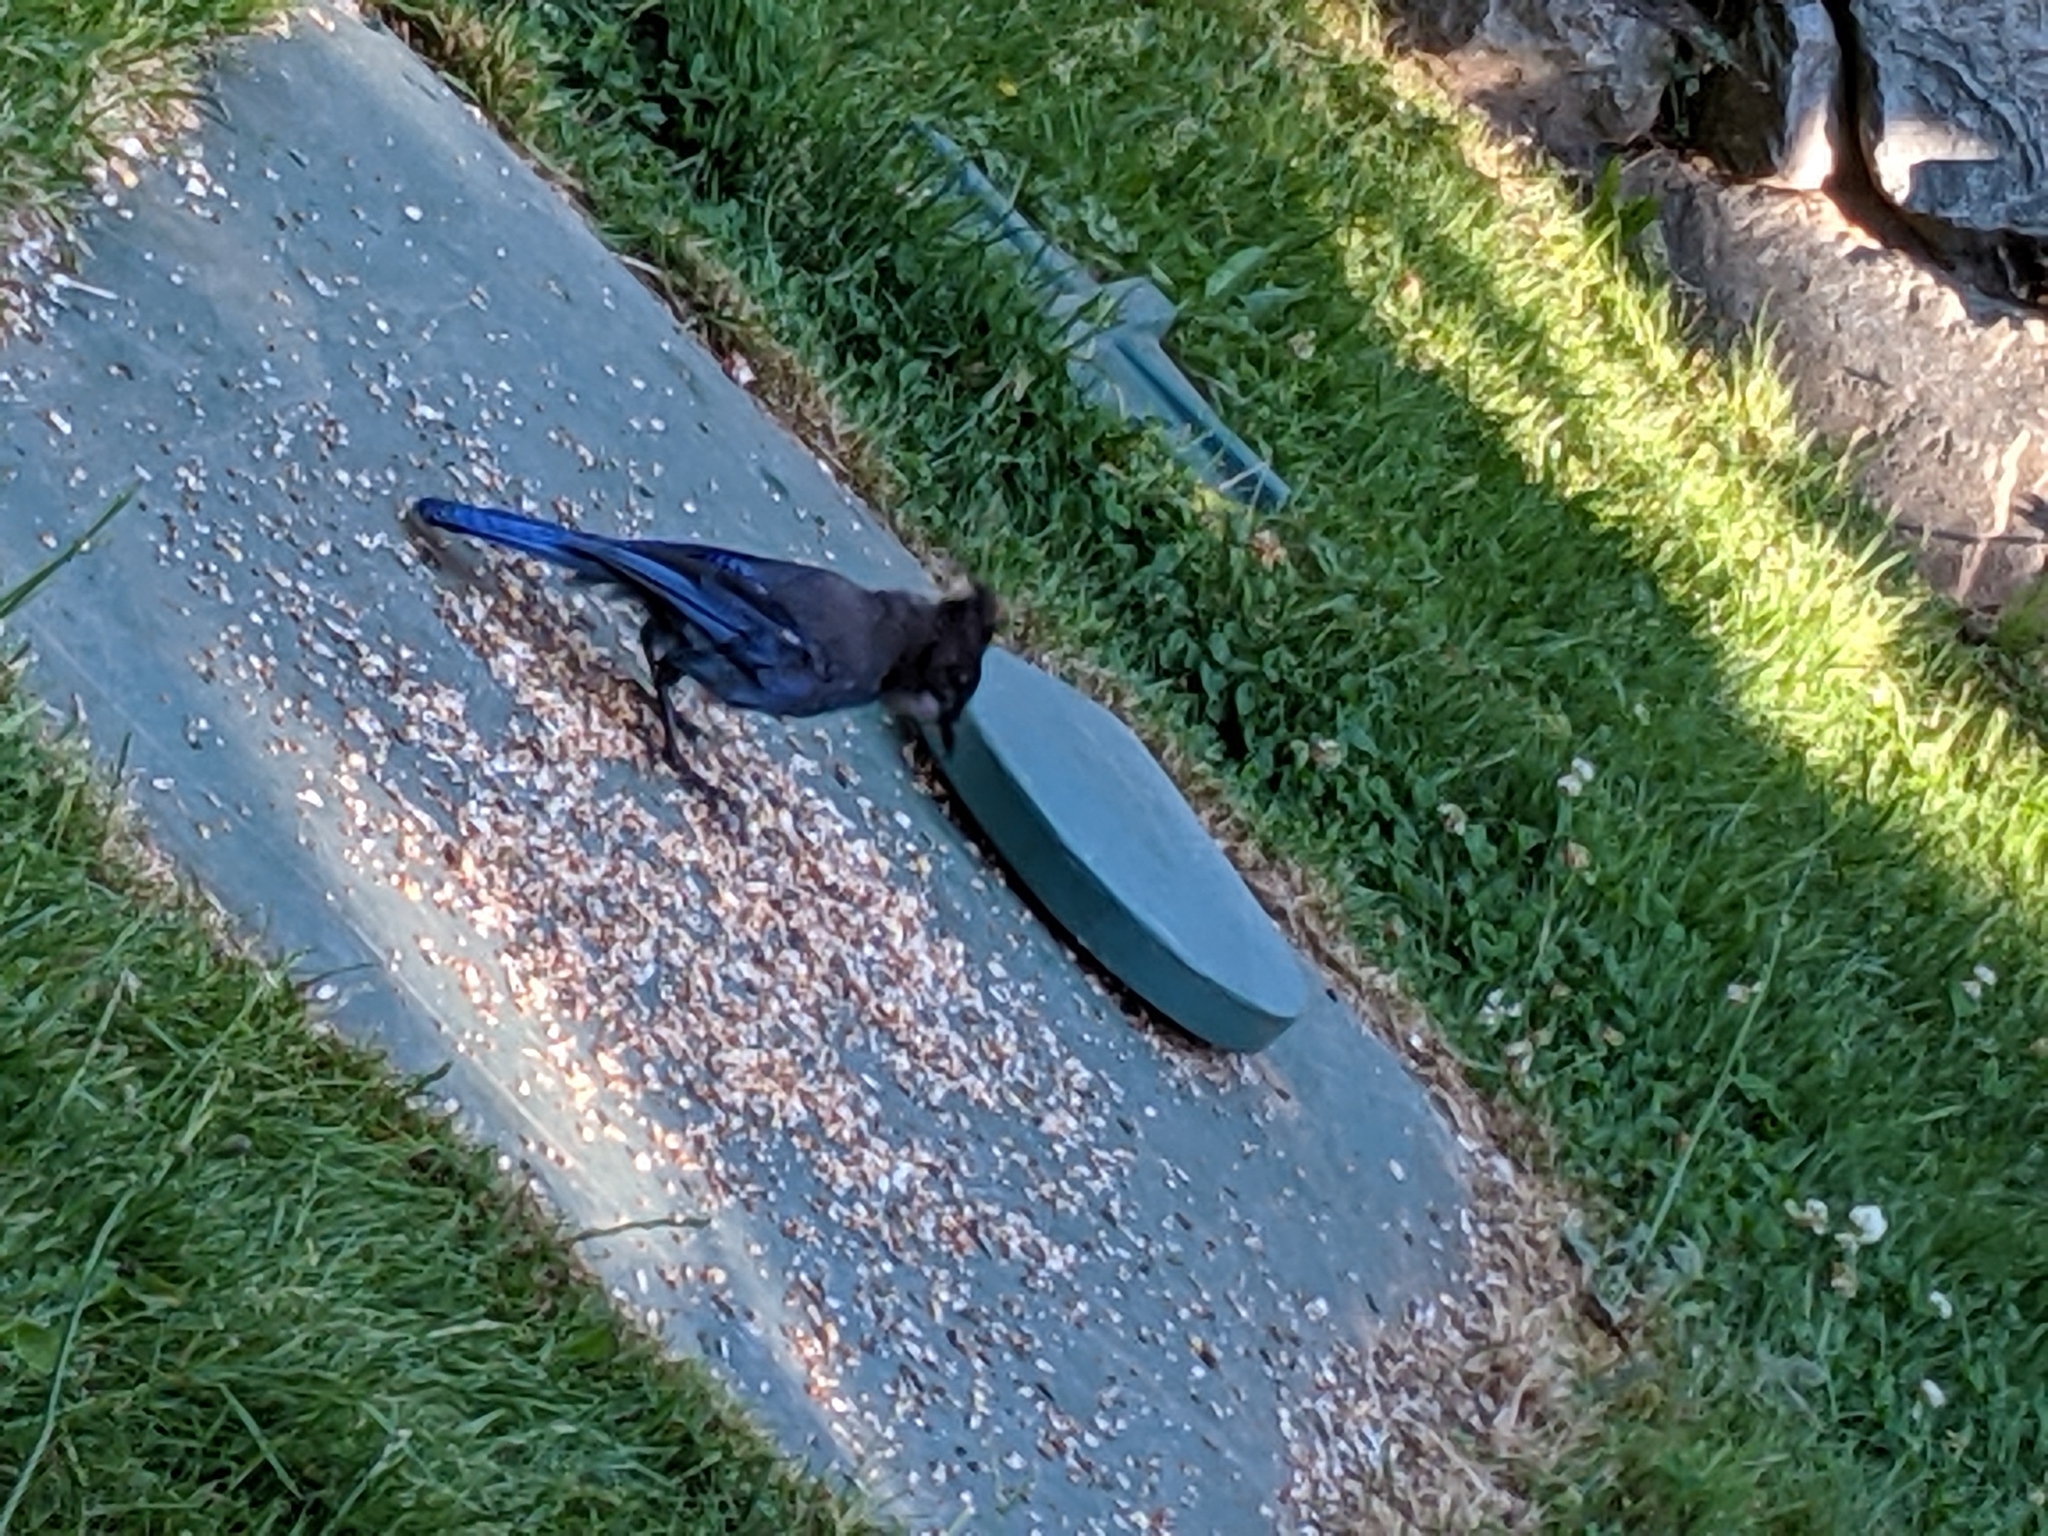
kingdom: Animalia
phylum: Chordata
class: Aves
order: Passeriformes
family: Corvidae
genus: Cyanocitta
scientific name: Cyanocitta stelleri
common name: Steller's jay
